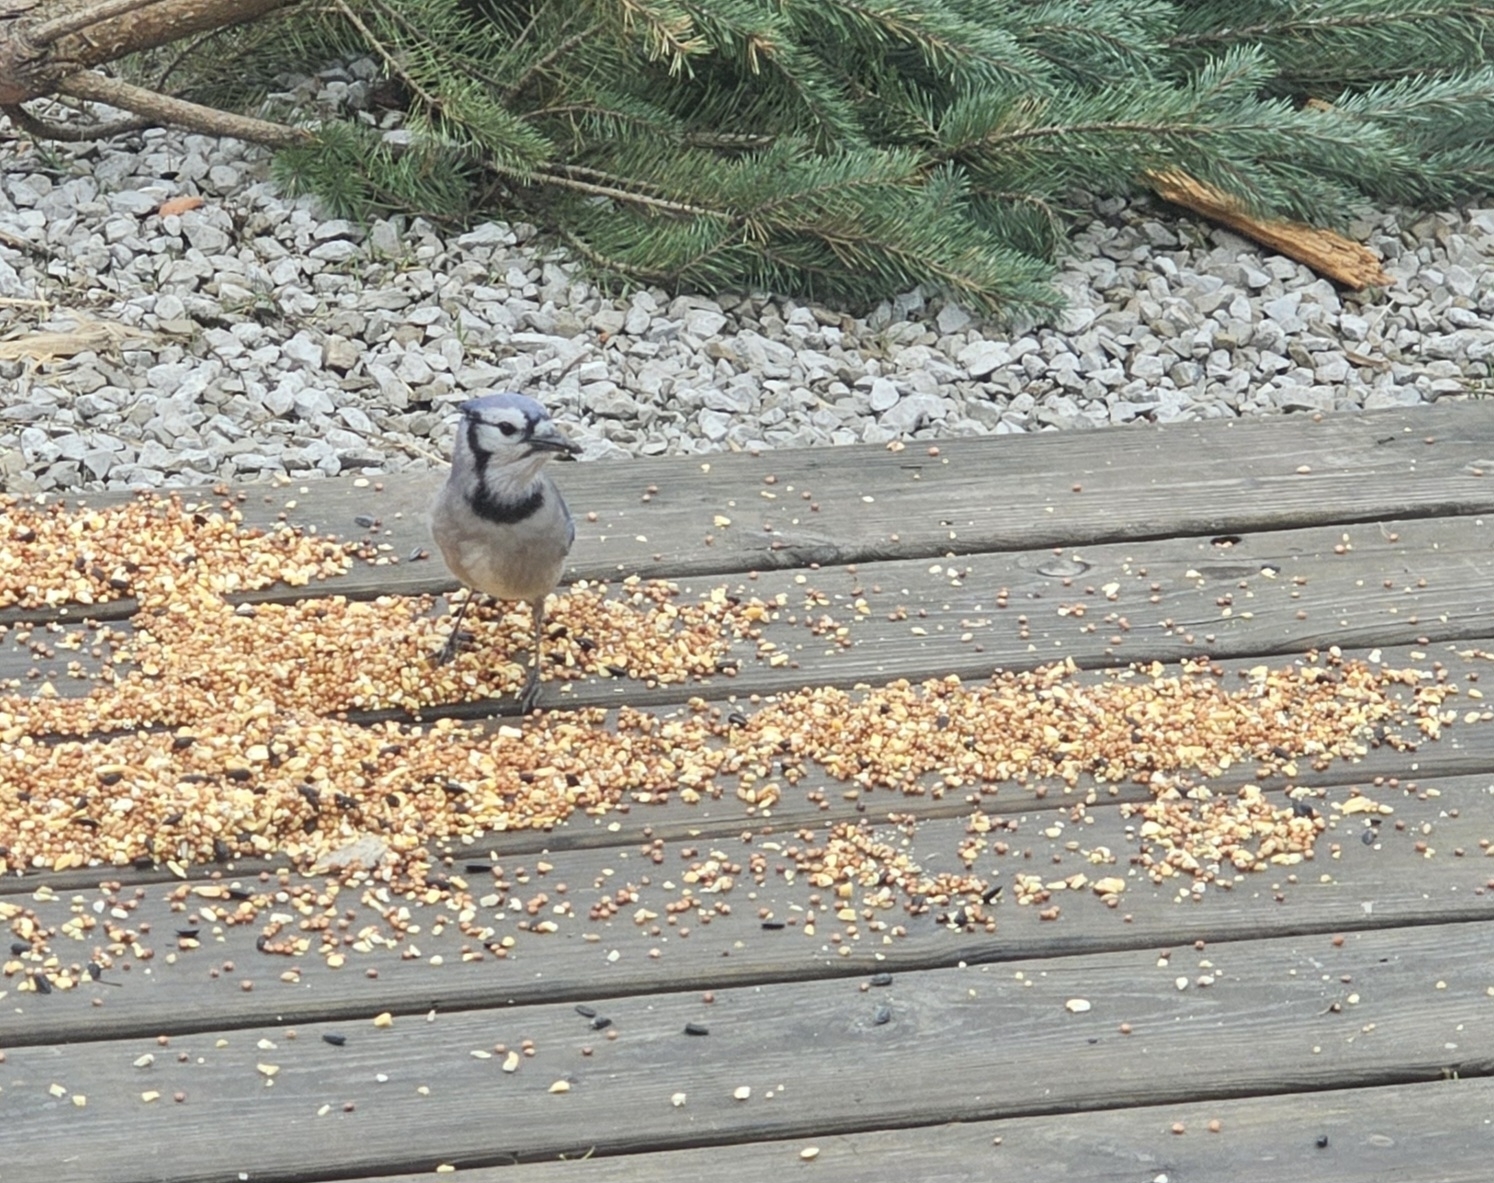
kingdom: Animalia
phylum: Chordata
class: Aves
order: Passeriformes
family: Corvidae
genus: Cyanocitta
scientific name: Cyanocitta cristata
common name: Blue jay
